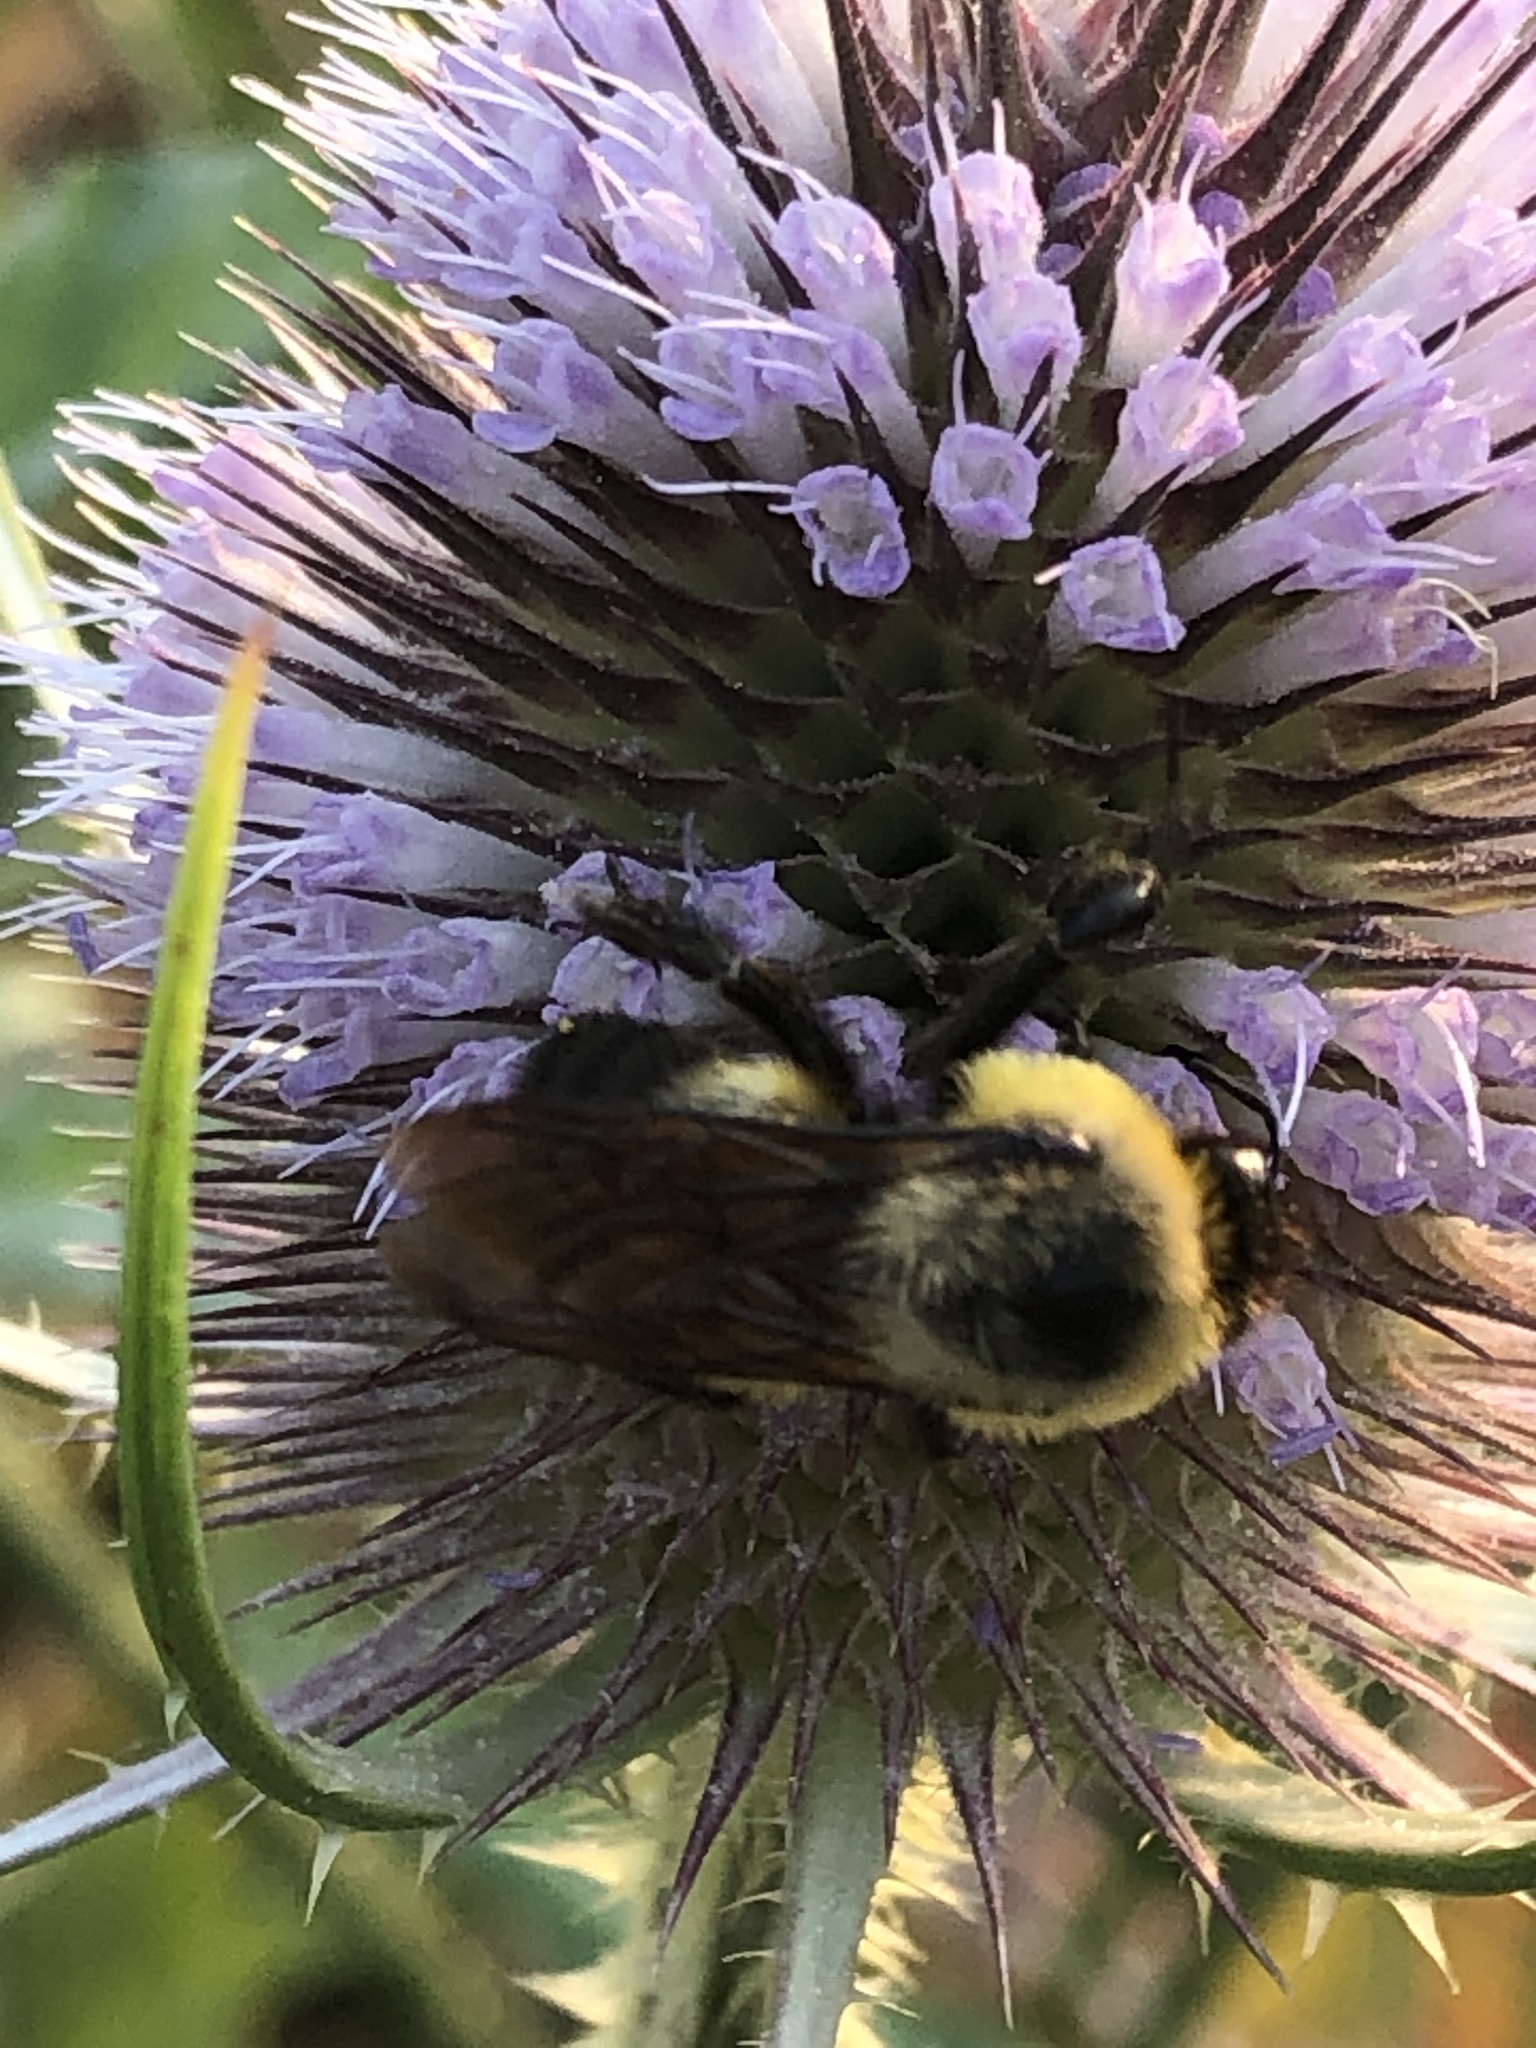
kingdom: Animalia
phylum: Arthropoda
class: Insecta
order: Hymenoptera
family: Apidae
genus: Bombus
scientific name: Bombus griseocollis
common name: Brown-belted bumble bee
